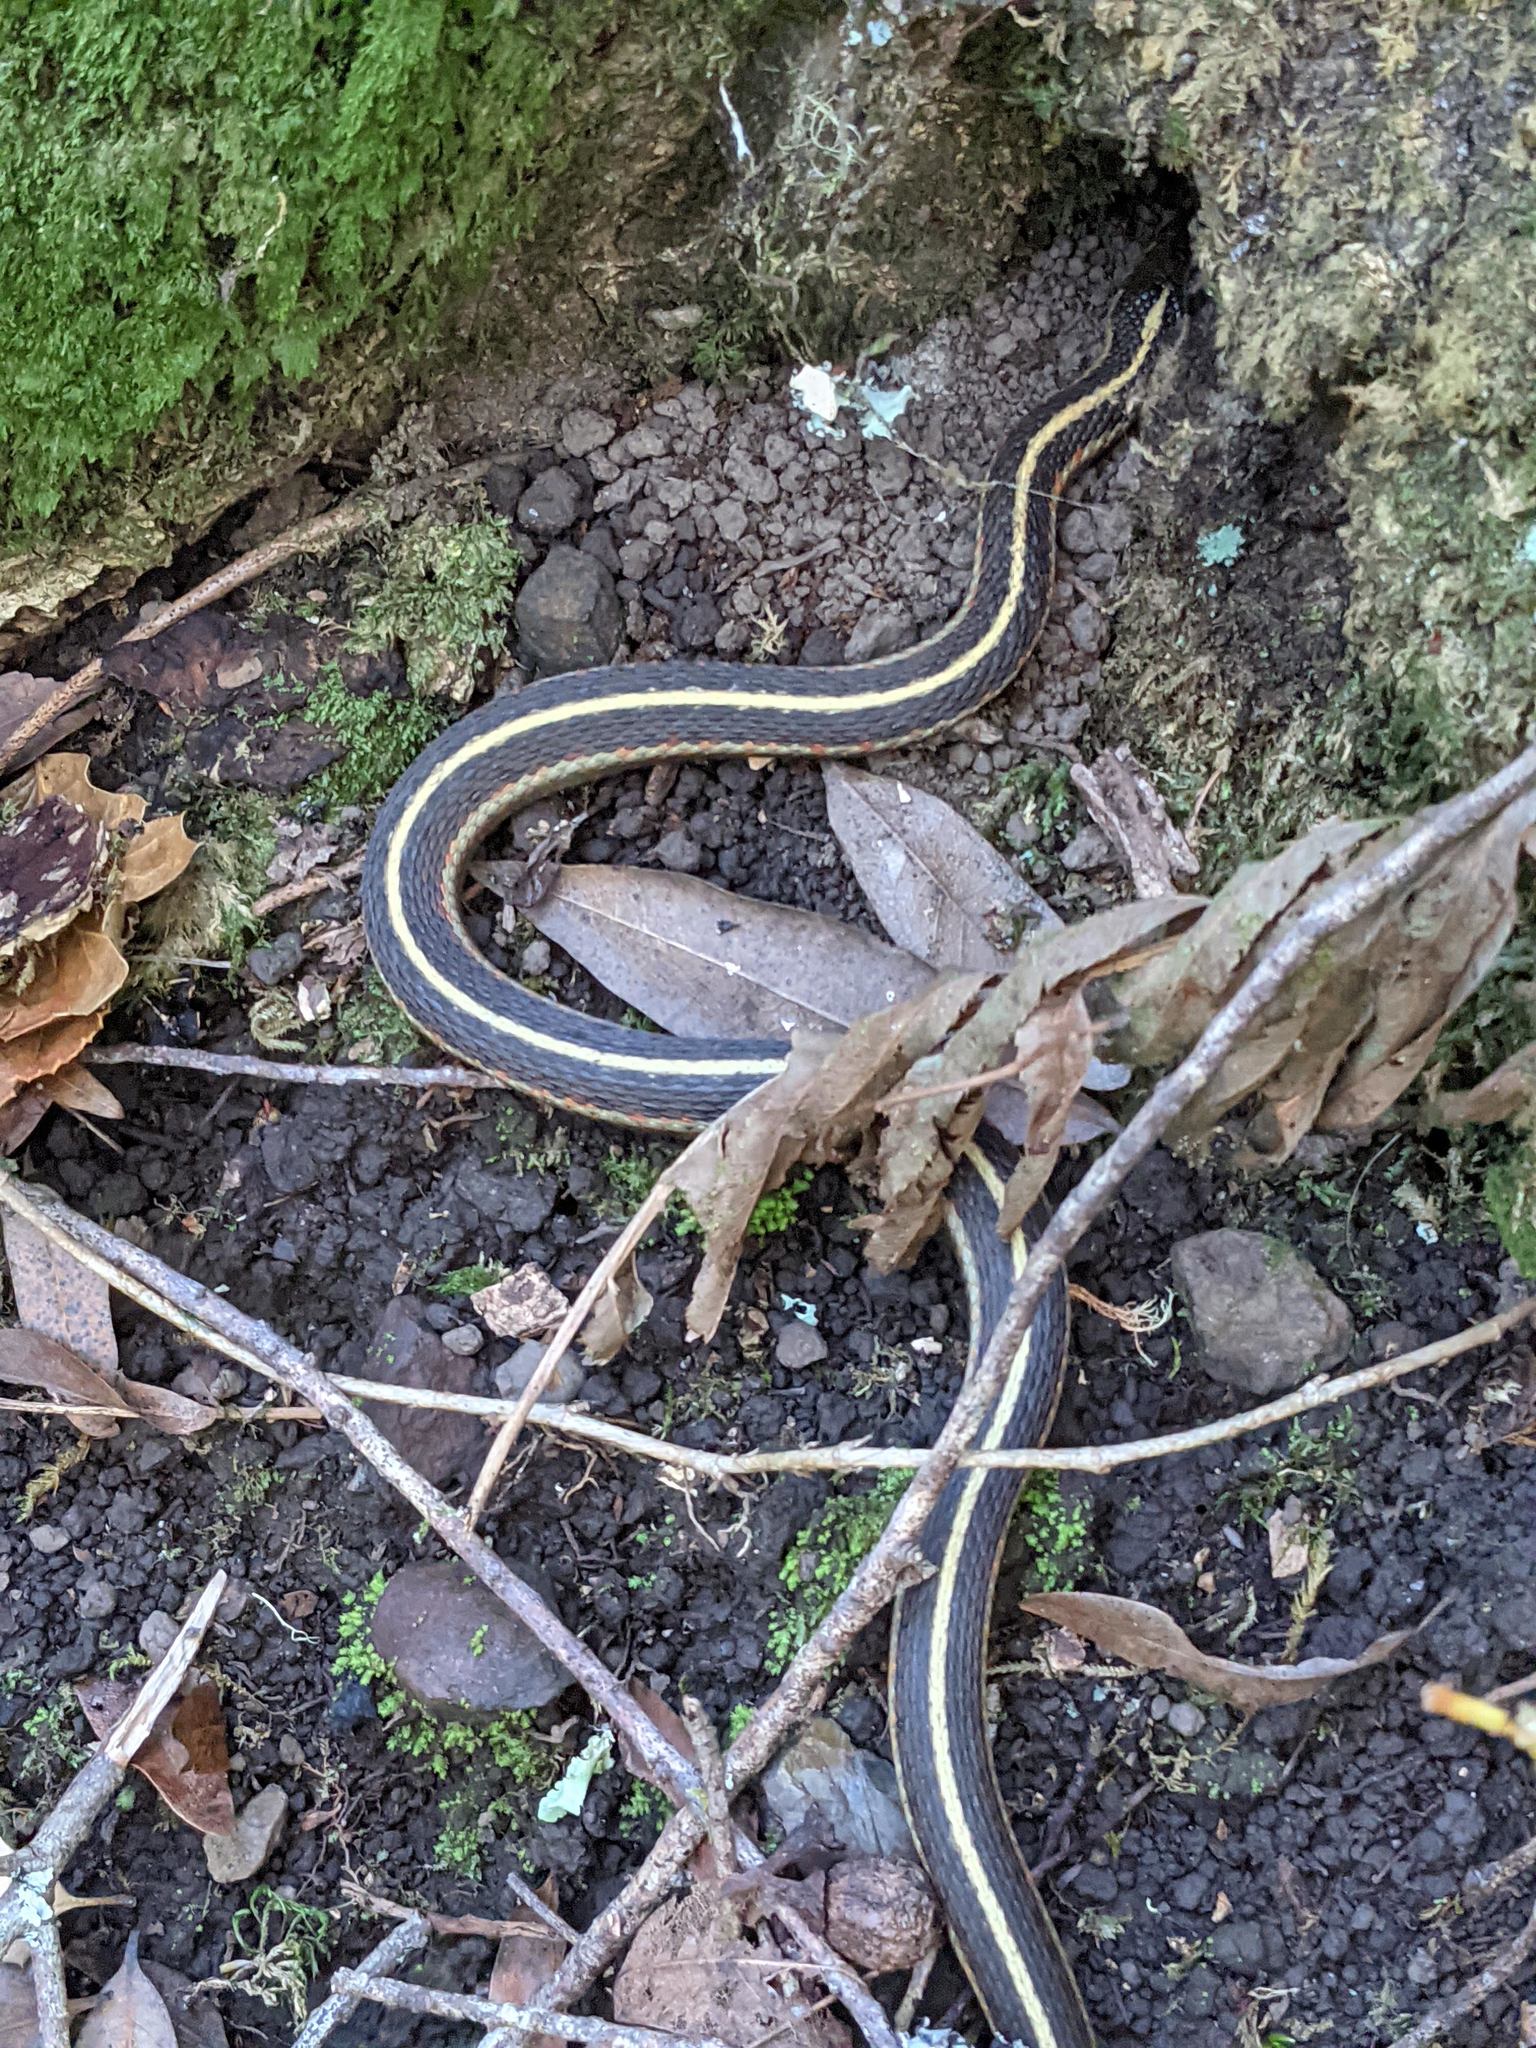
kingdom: Animalia
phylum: Chordata
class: Squamata
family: Colubridae
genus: Thamnophis
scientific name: Thamnophis elegans
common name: Western terrestrial garter snake
